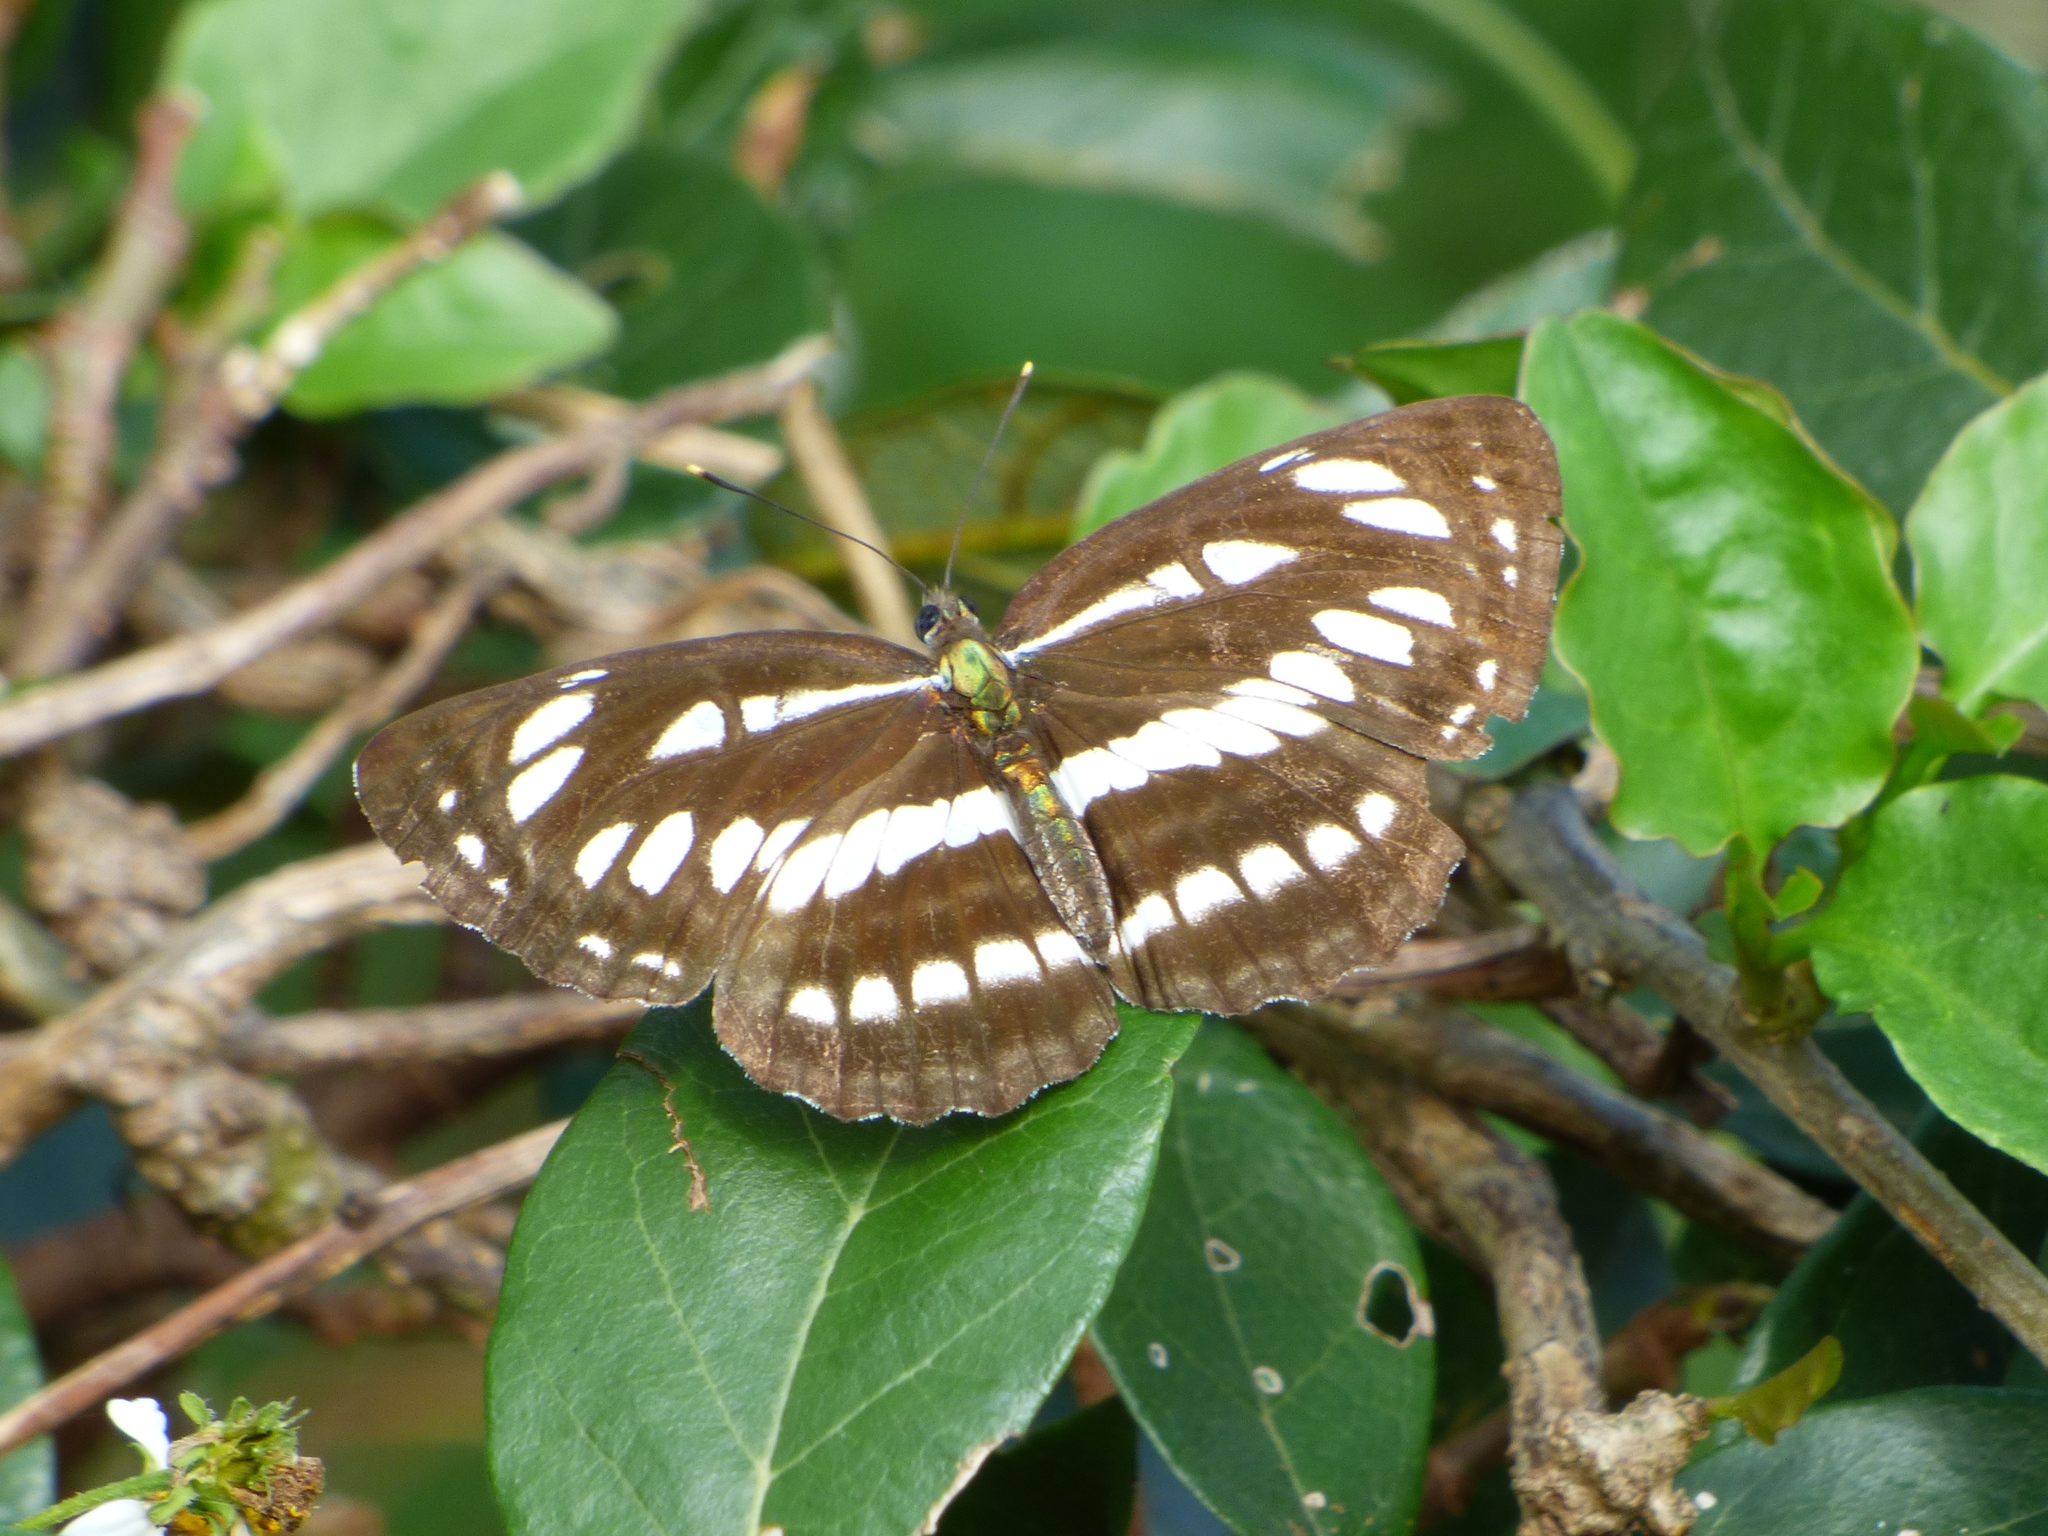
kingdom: Animalia
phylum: Arthropoda
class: Insecta
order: Lepidoptera
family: Nymphalidae
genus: Neptis
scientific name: Neptis hylas
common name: Common sailer
